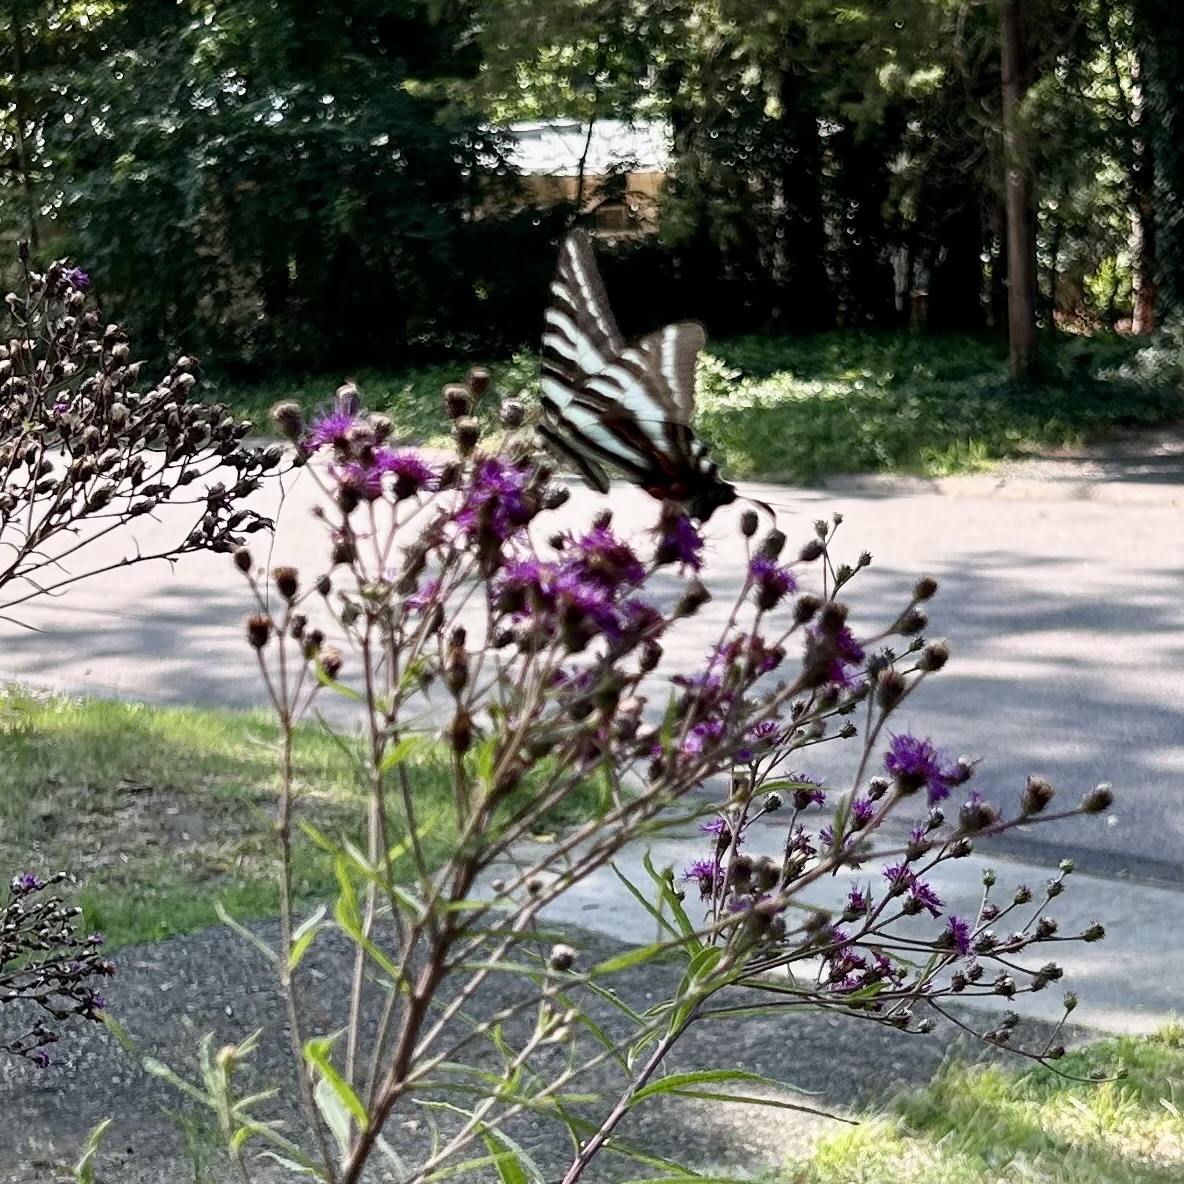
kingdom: Animalia
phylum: Arthropoda
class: Insecta
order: Lepidoptera
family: Papilionidae
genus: Protographium
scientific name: Protographium marcellus
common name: Zebra swallowtail
